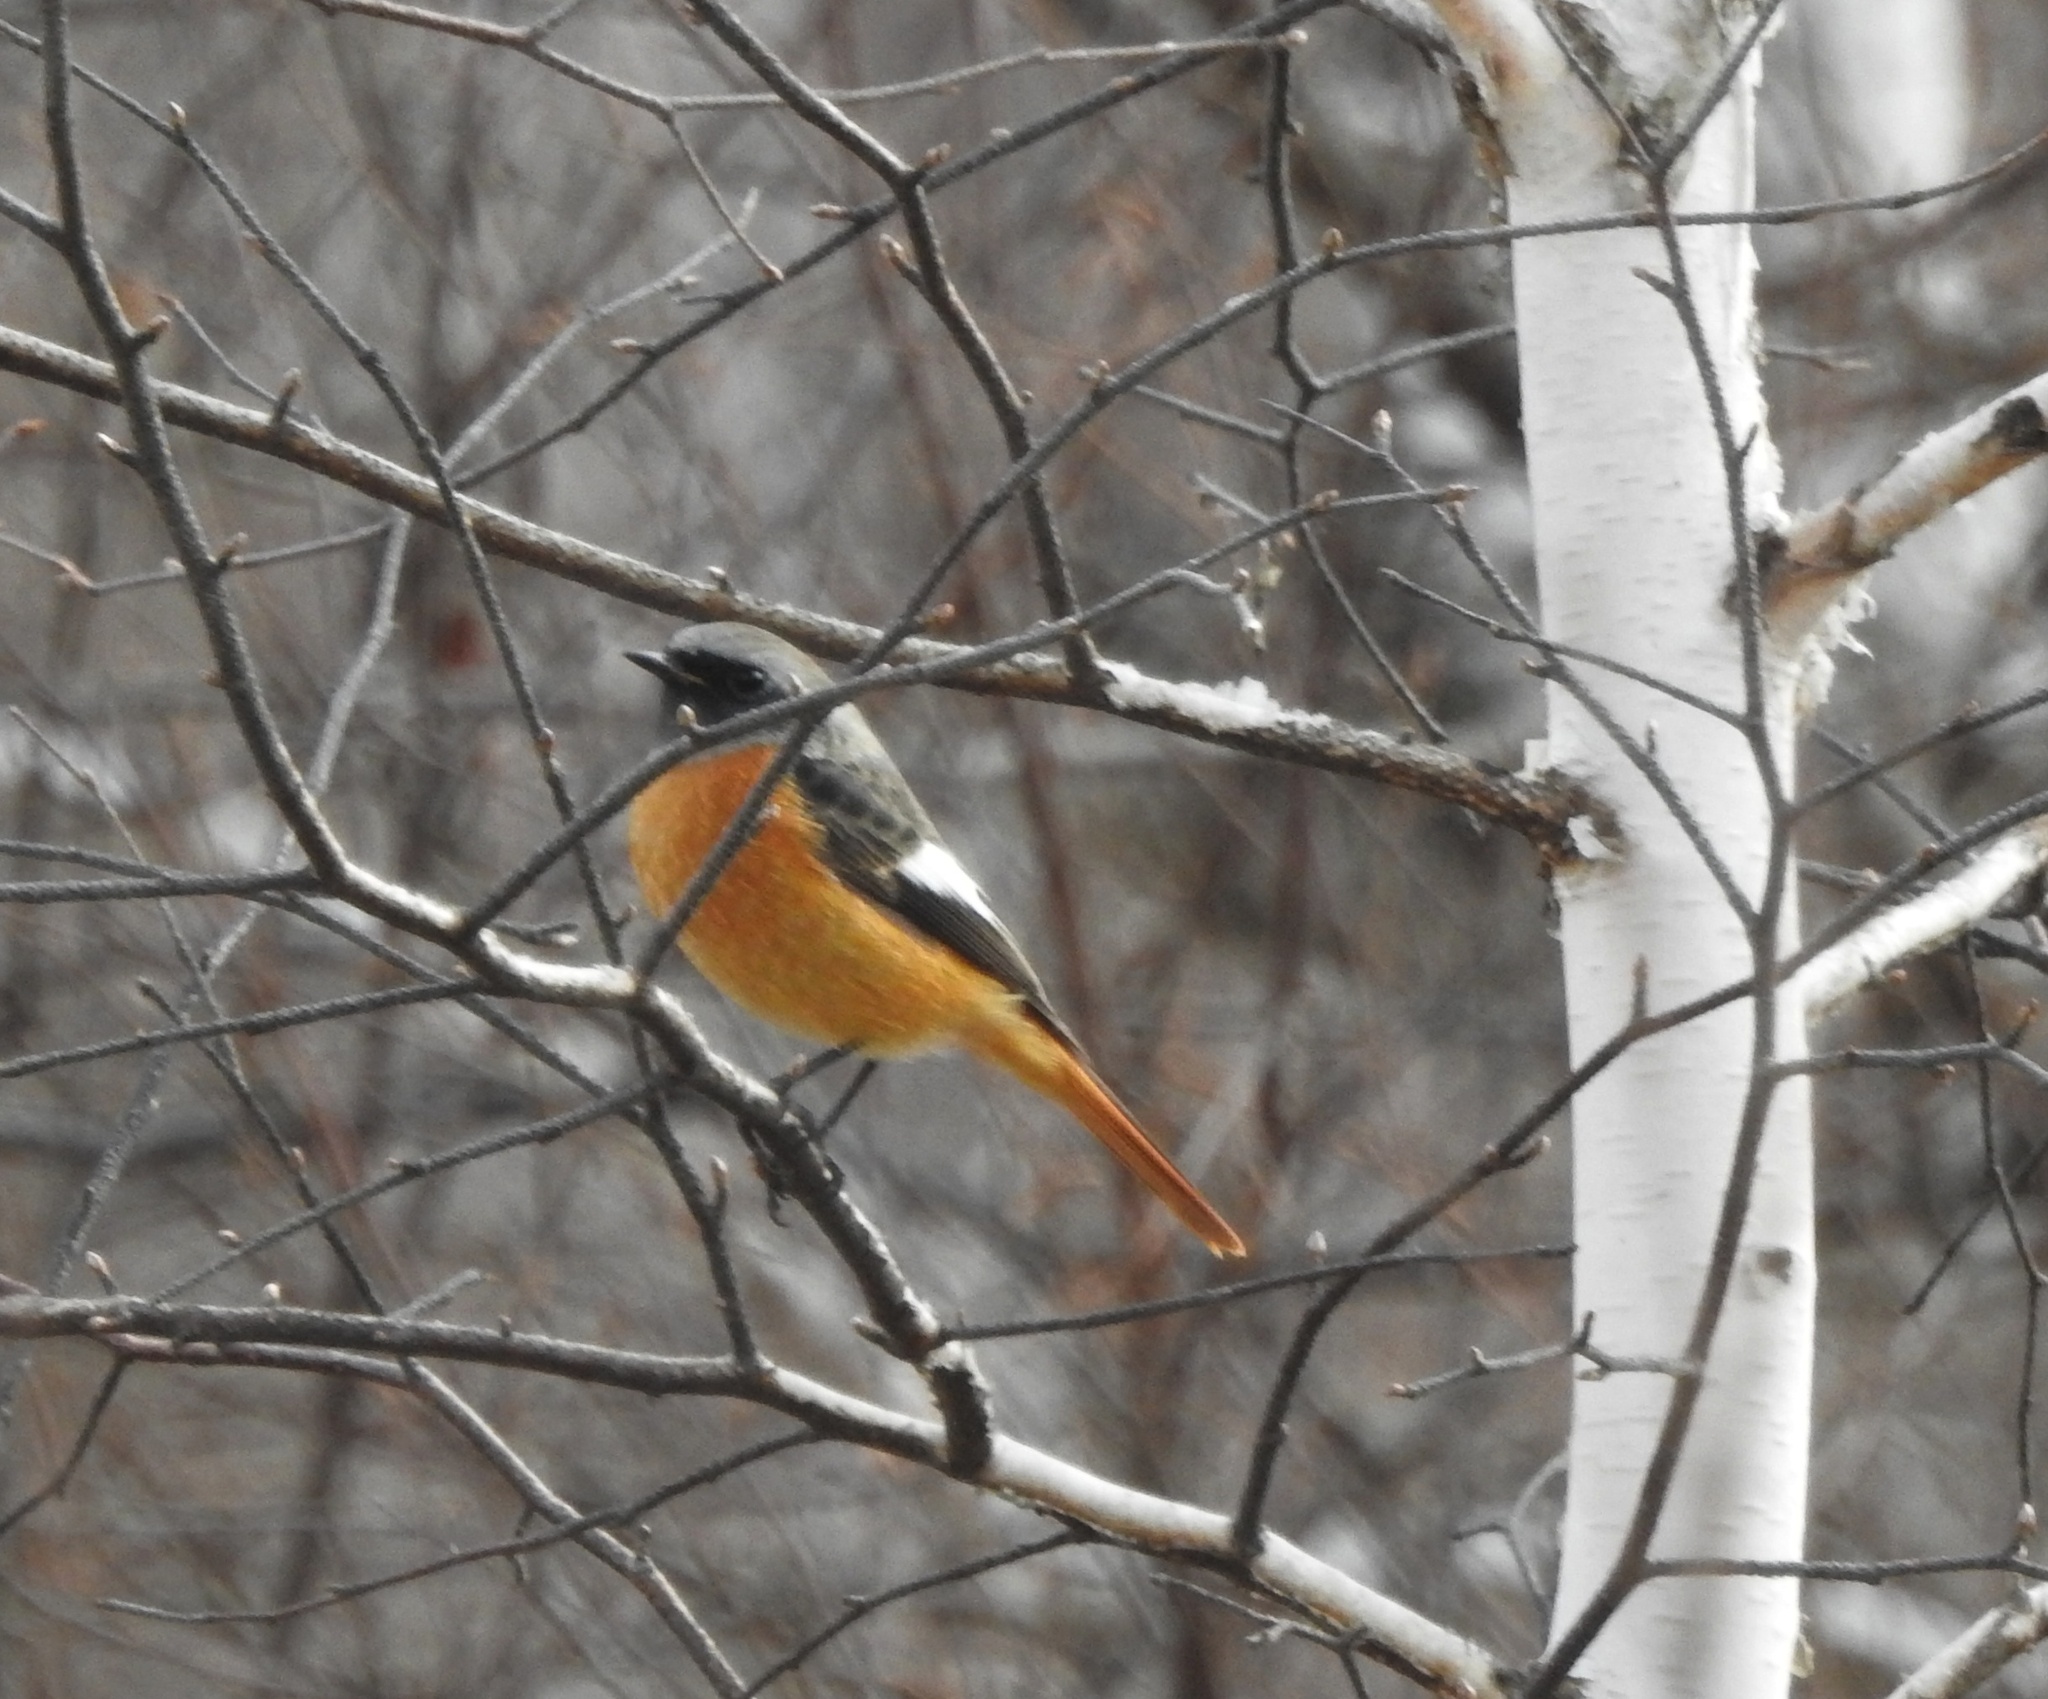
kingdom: Animalia
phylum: Chordata
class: Aves
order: Passeriformes
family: Muscicapidae
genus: Phoenicurus
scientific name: Phoenicurus auroreus
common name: Daurian redstart
